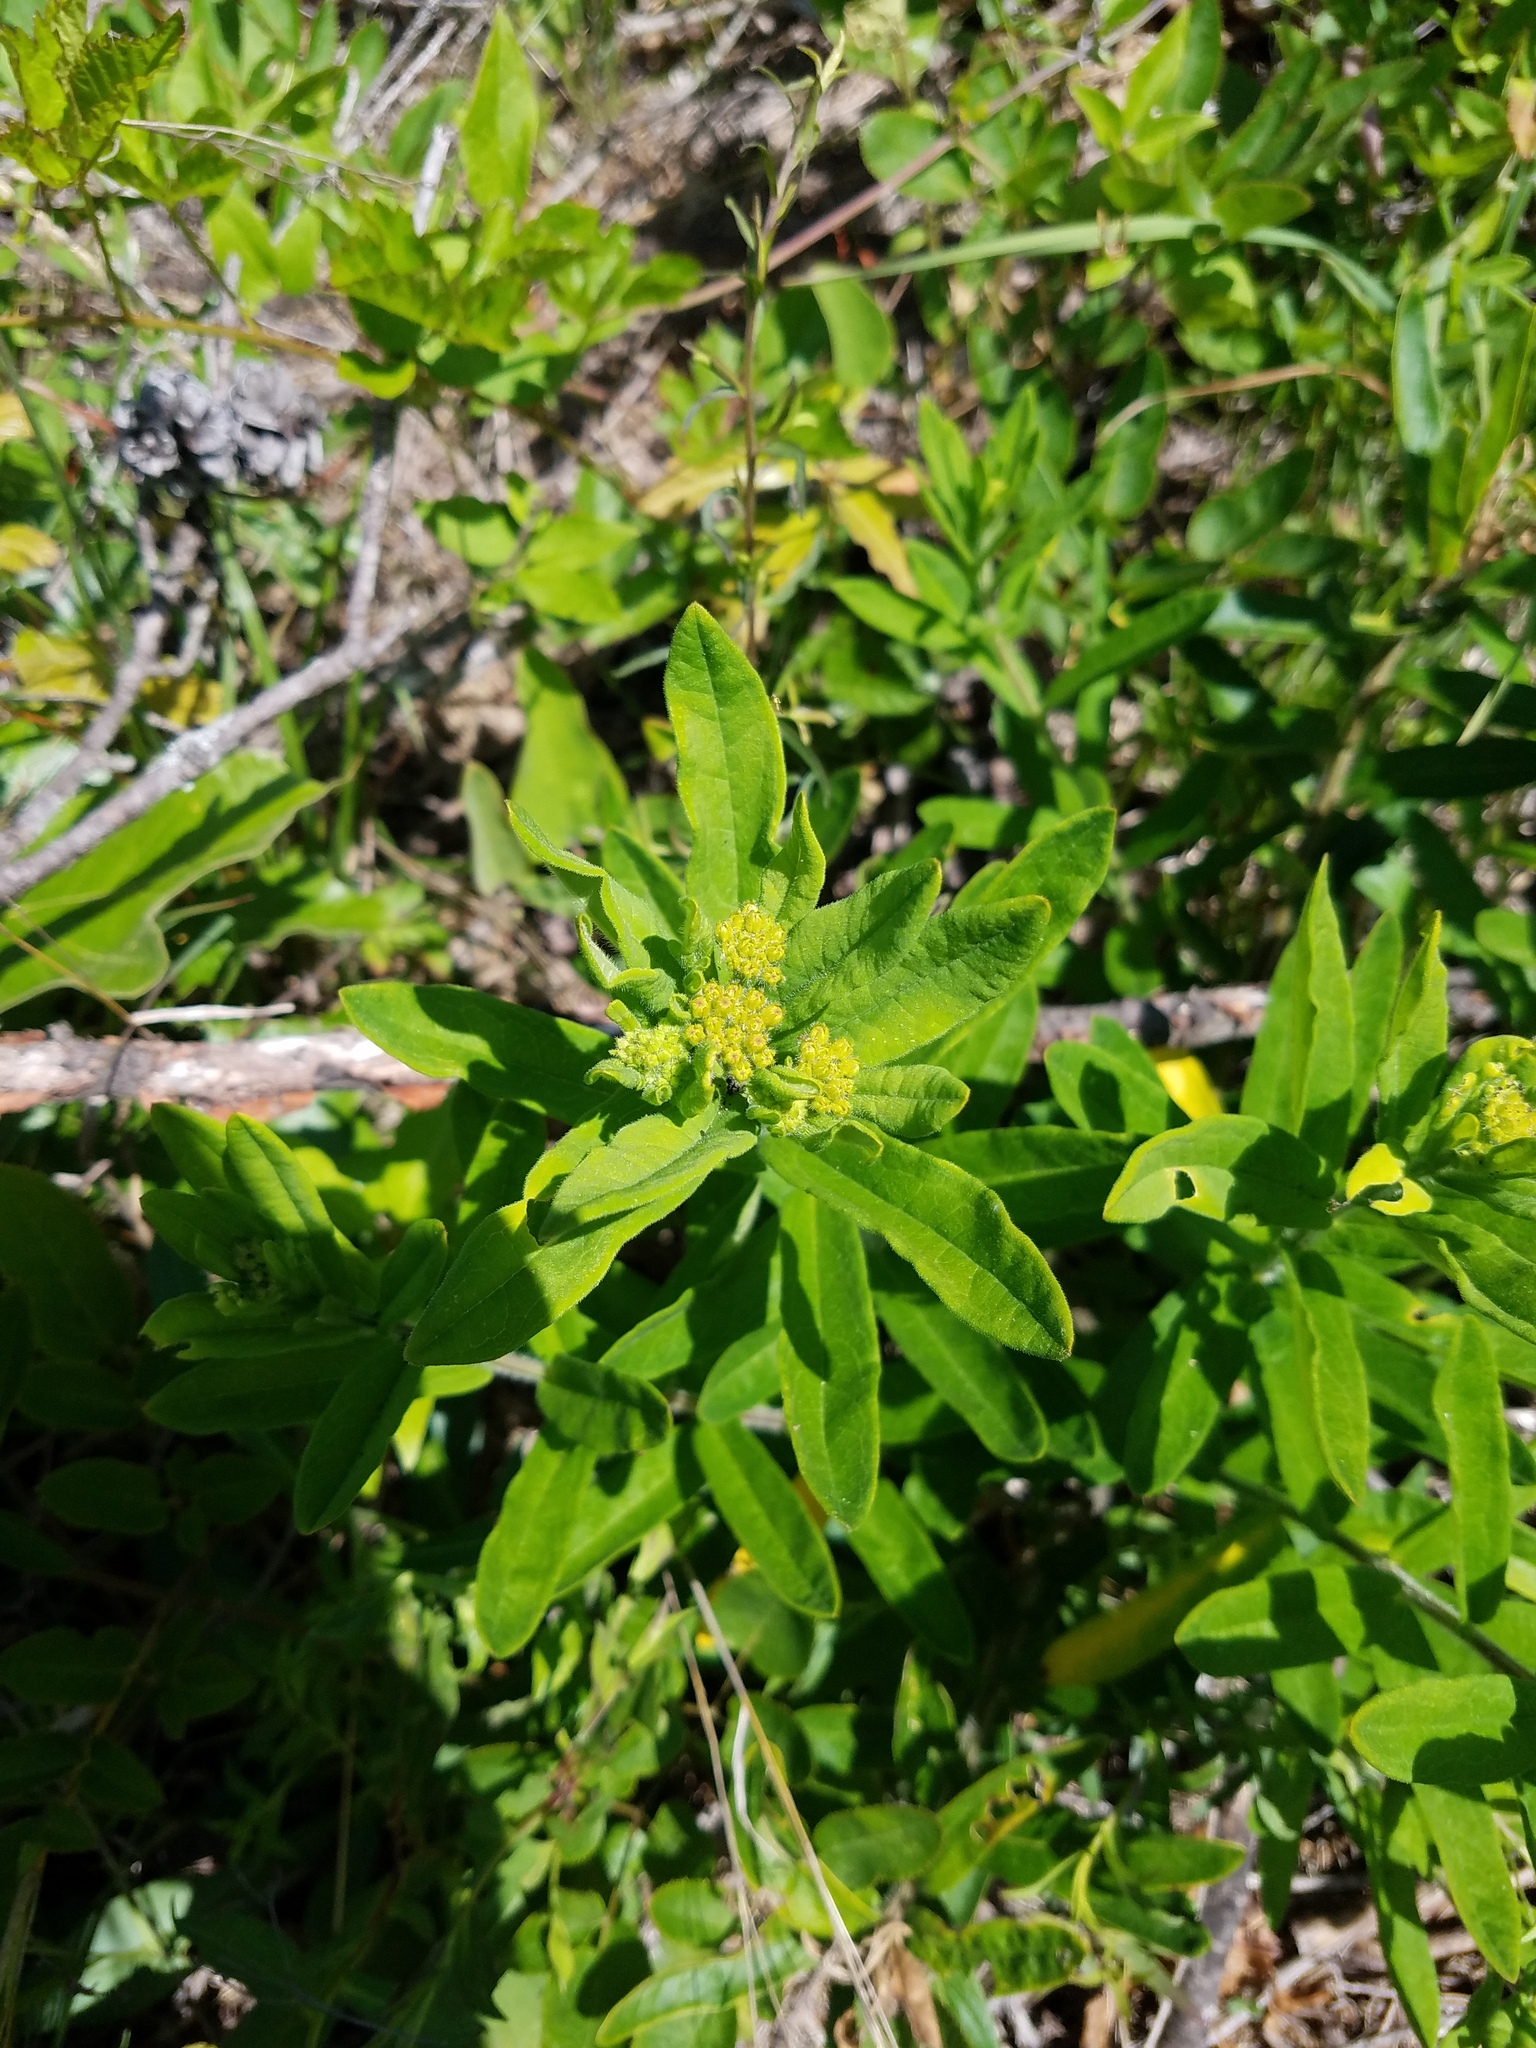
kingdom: Plantae
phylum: Tracheophyta
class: Magnoliopsida
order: Gentianales
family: Apocynaceae
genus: Asclepias
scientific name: Asclepias tuberosa
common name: Butterfly milkweed
